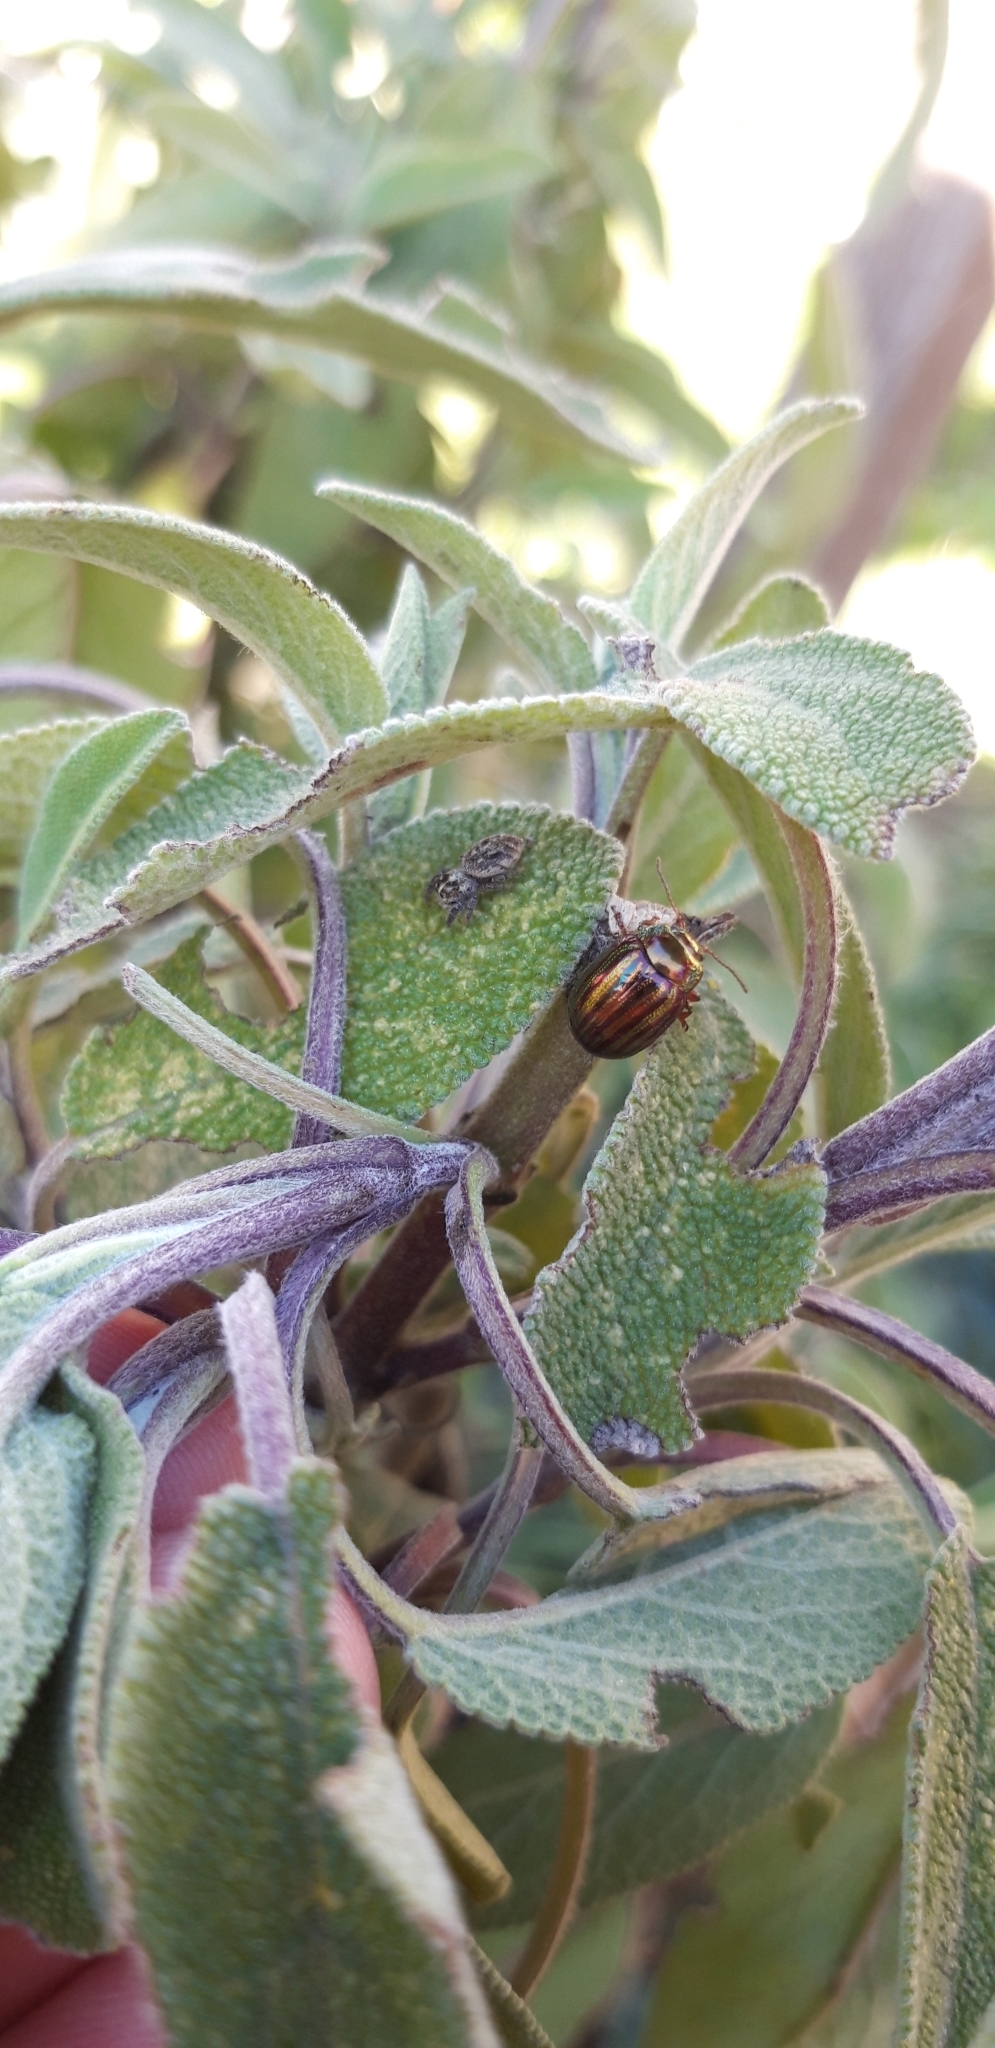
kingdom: Animalia
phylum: Arthropoda
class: Insecta
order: Coleoptera
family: Chrysomelidae
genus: Chrysolina
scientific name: Chrysolina americana
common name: Rosemary beetle
